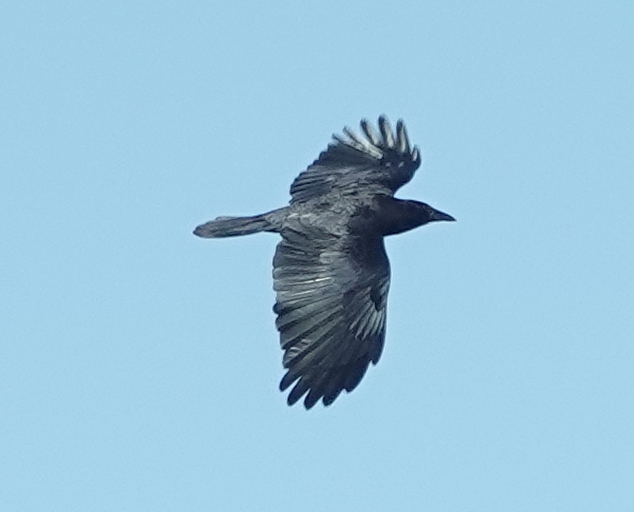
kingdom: Animalia
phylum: Chordata
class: Aves
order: Passeriformes
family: Corvidae
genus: Corvus
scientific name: Corvus brachyrhynchos
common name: American crow
